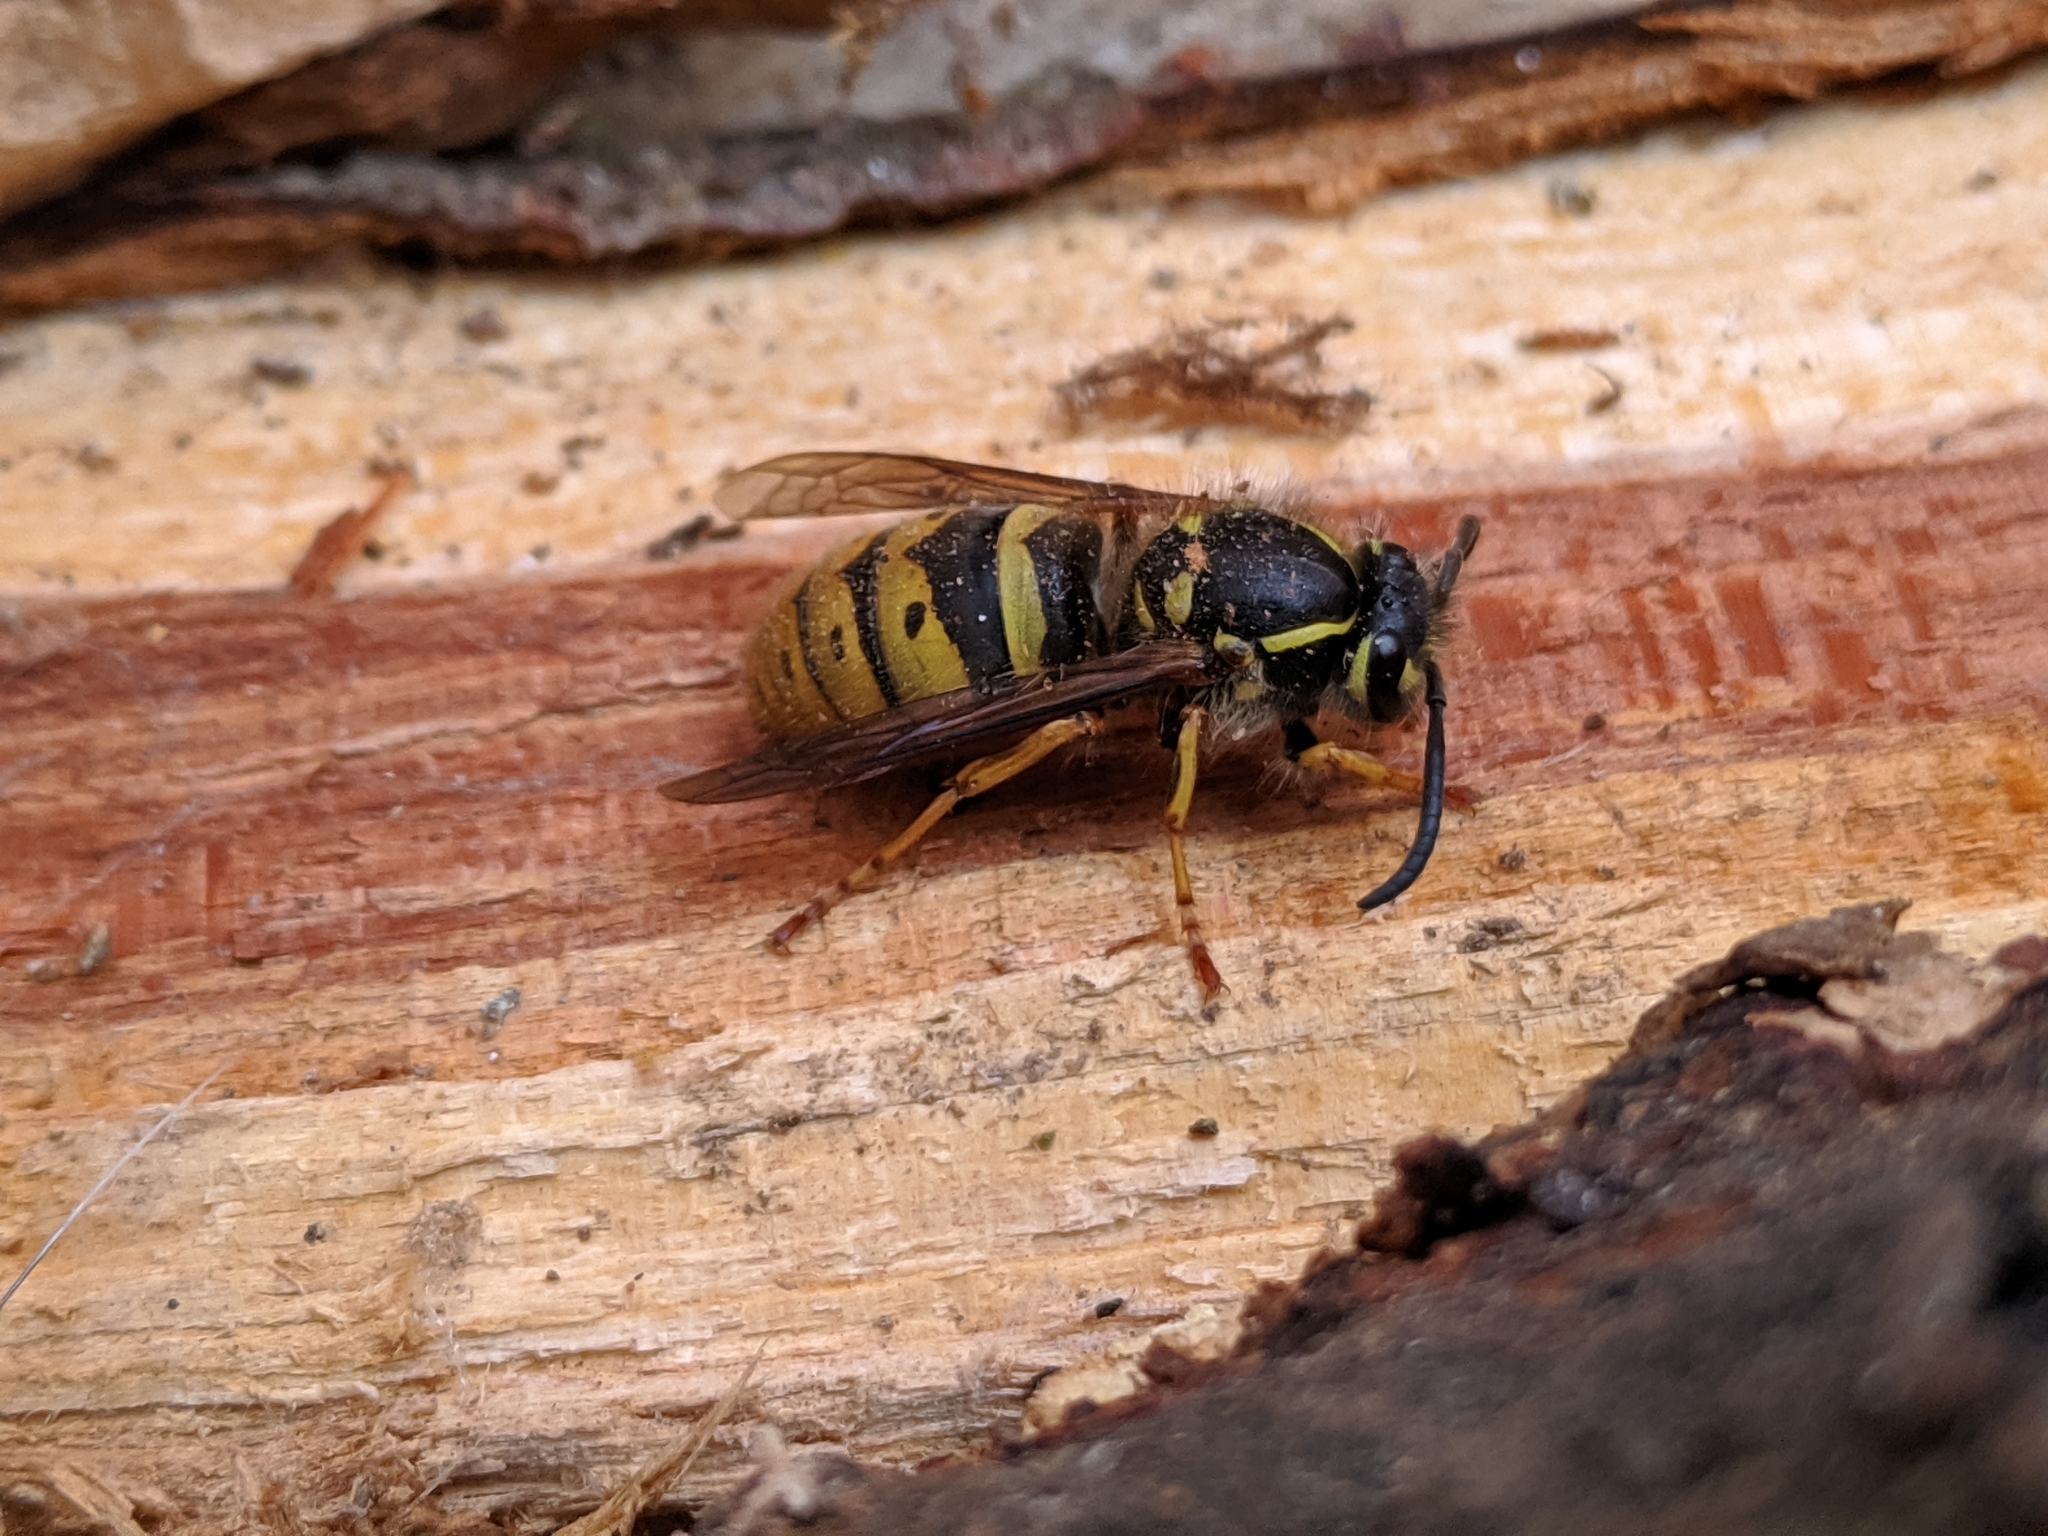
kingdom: Animalia
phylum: Arthropoda
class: Insecta
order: Hymenoptera
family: Vespidae
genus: Vespula
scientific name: Vespula vulgaris
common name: Common wasp
